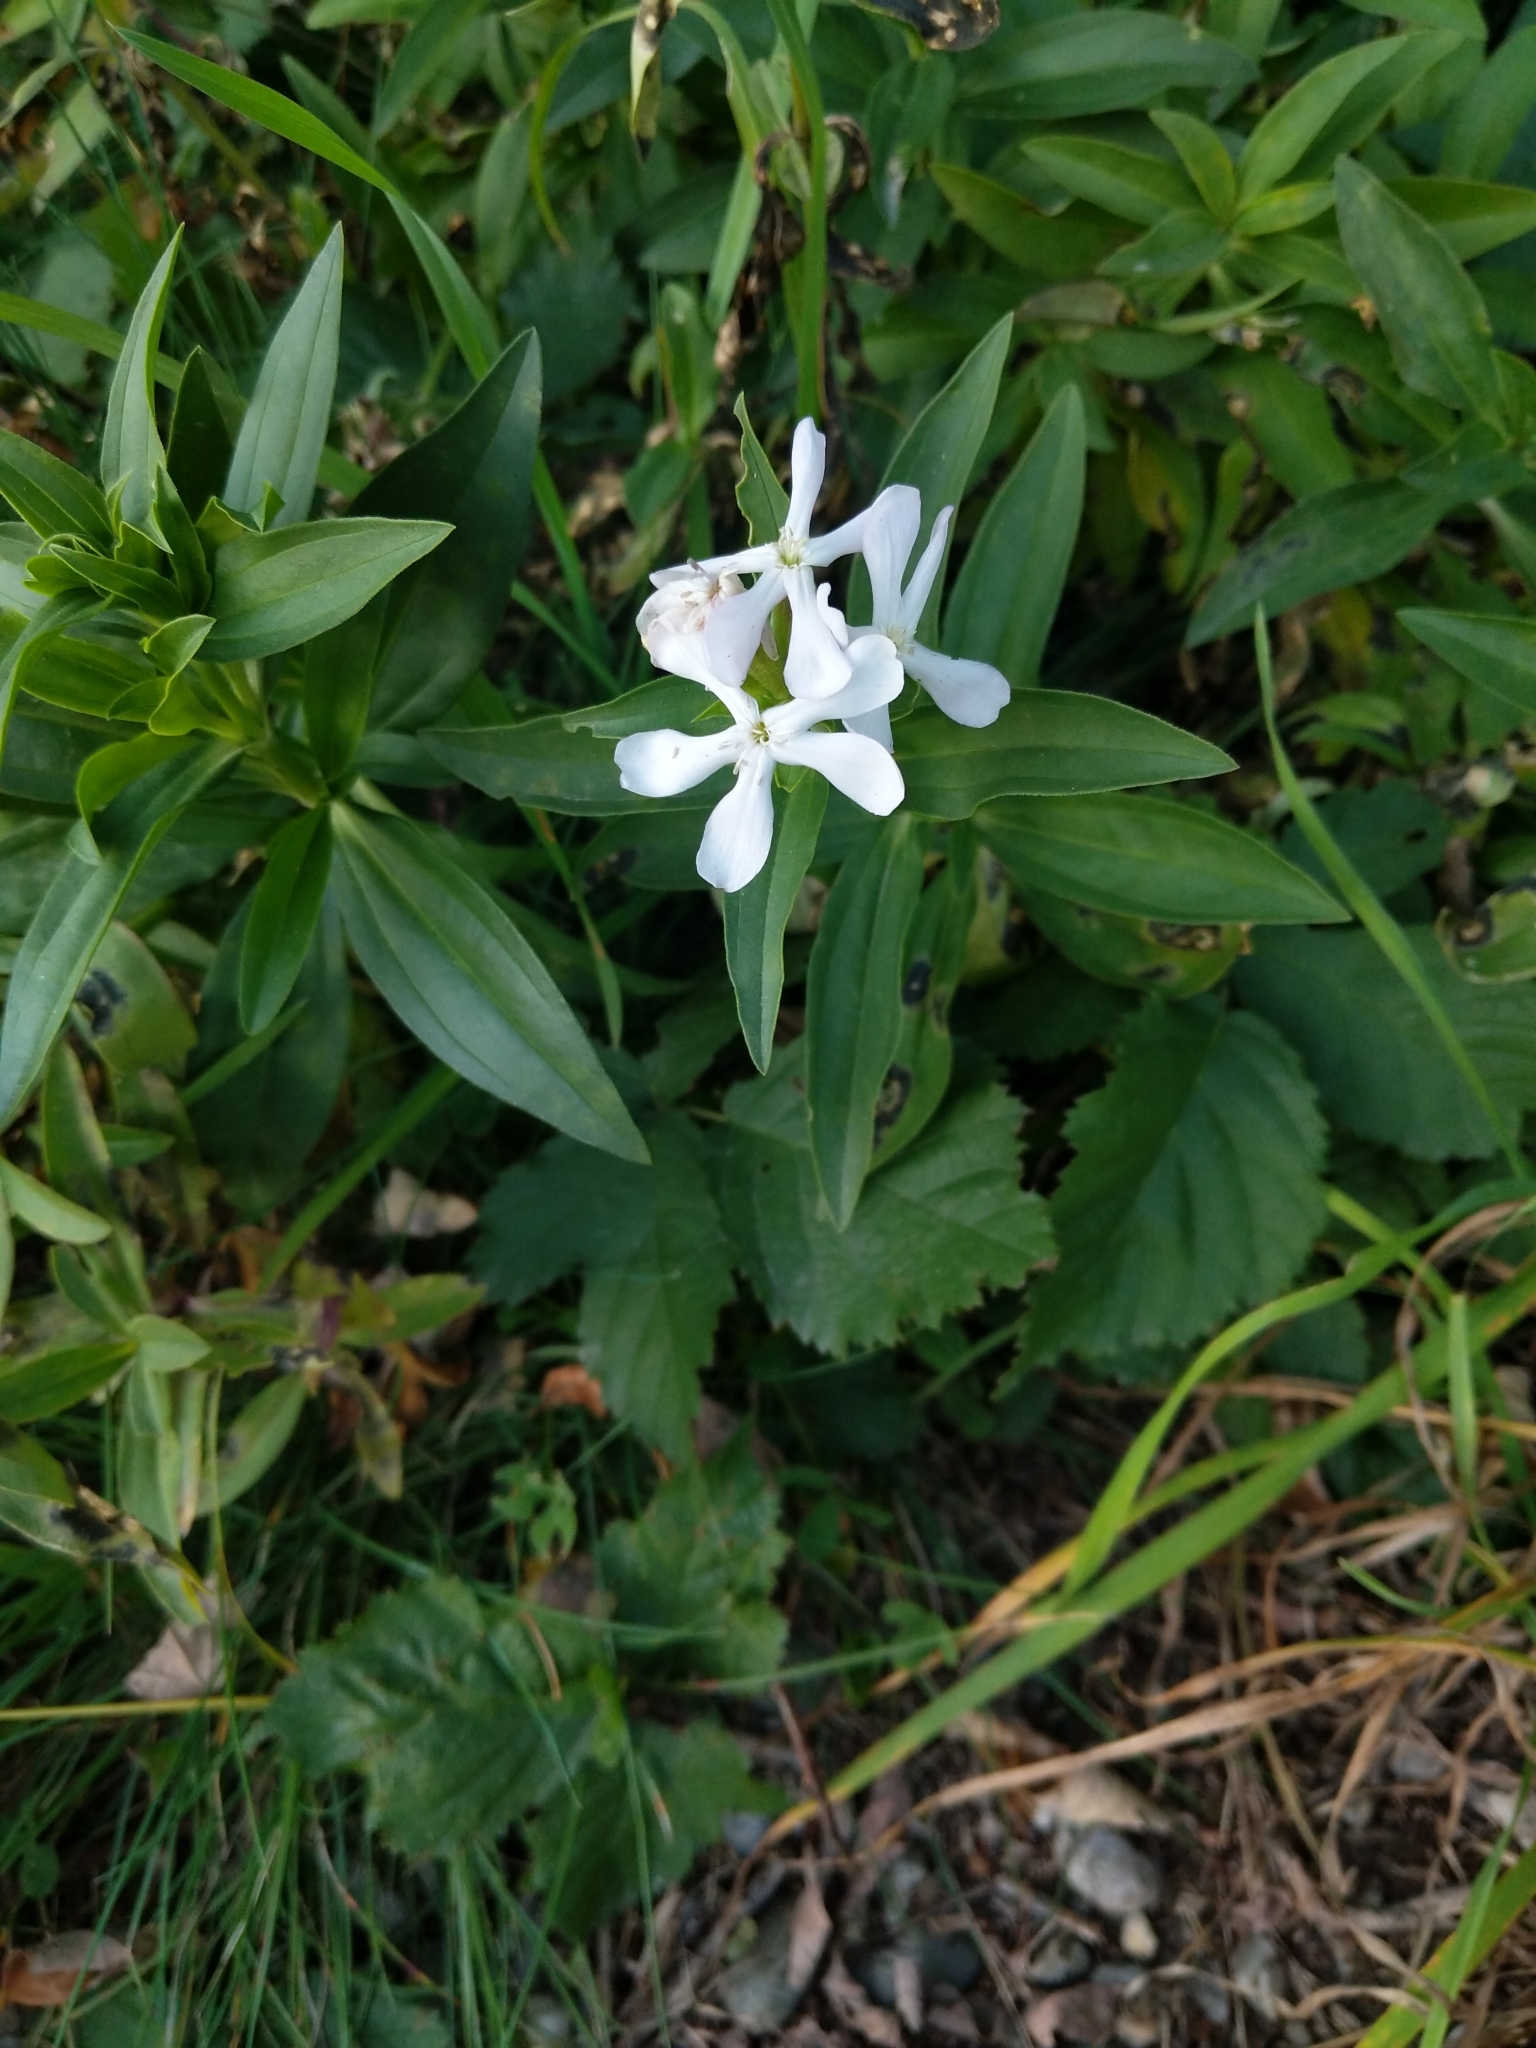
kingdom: Plantae
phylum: Tracheophyta
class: Magnoliopsida
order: Caryophyllales
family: Caryophyllaceae
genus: Saponaria
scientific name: Saponaria officinalis
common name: Soapwort
